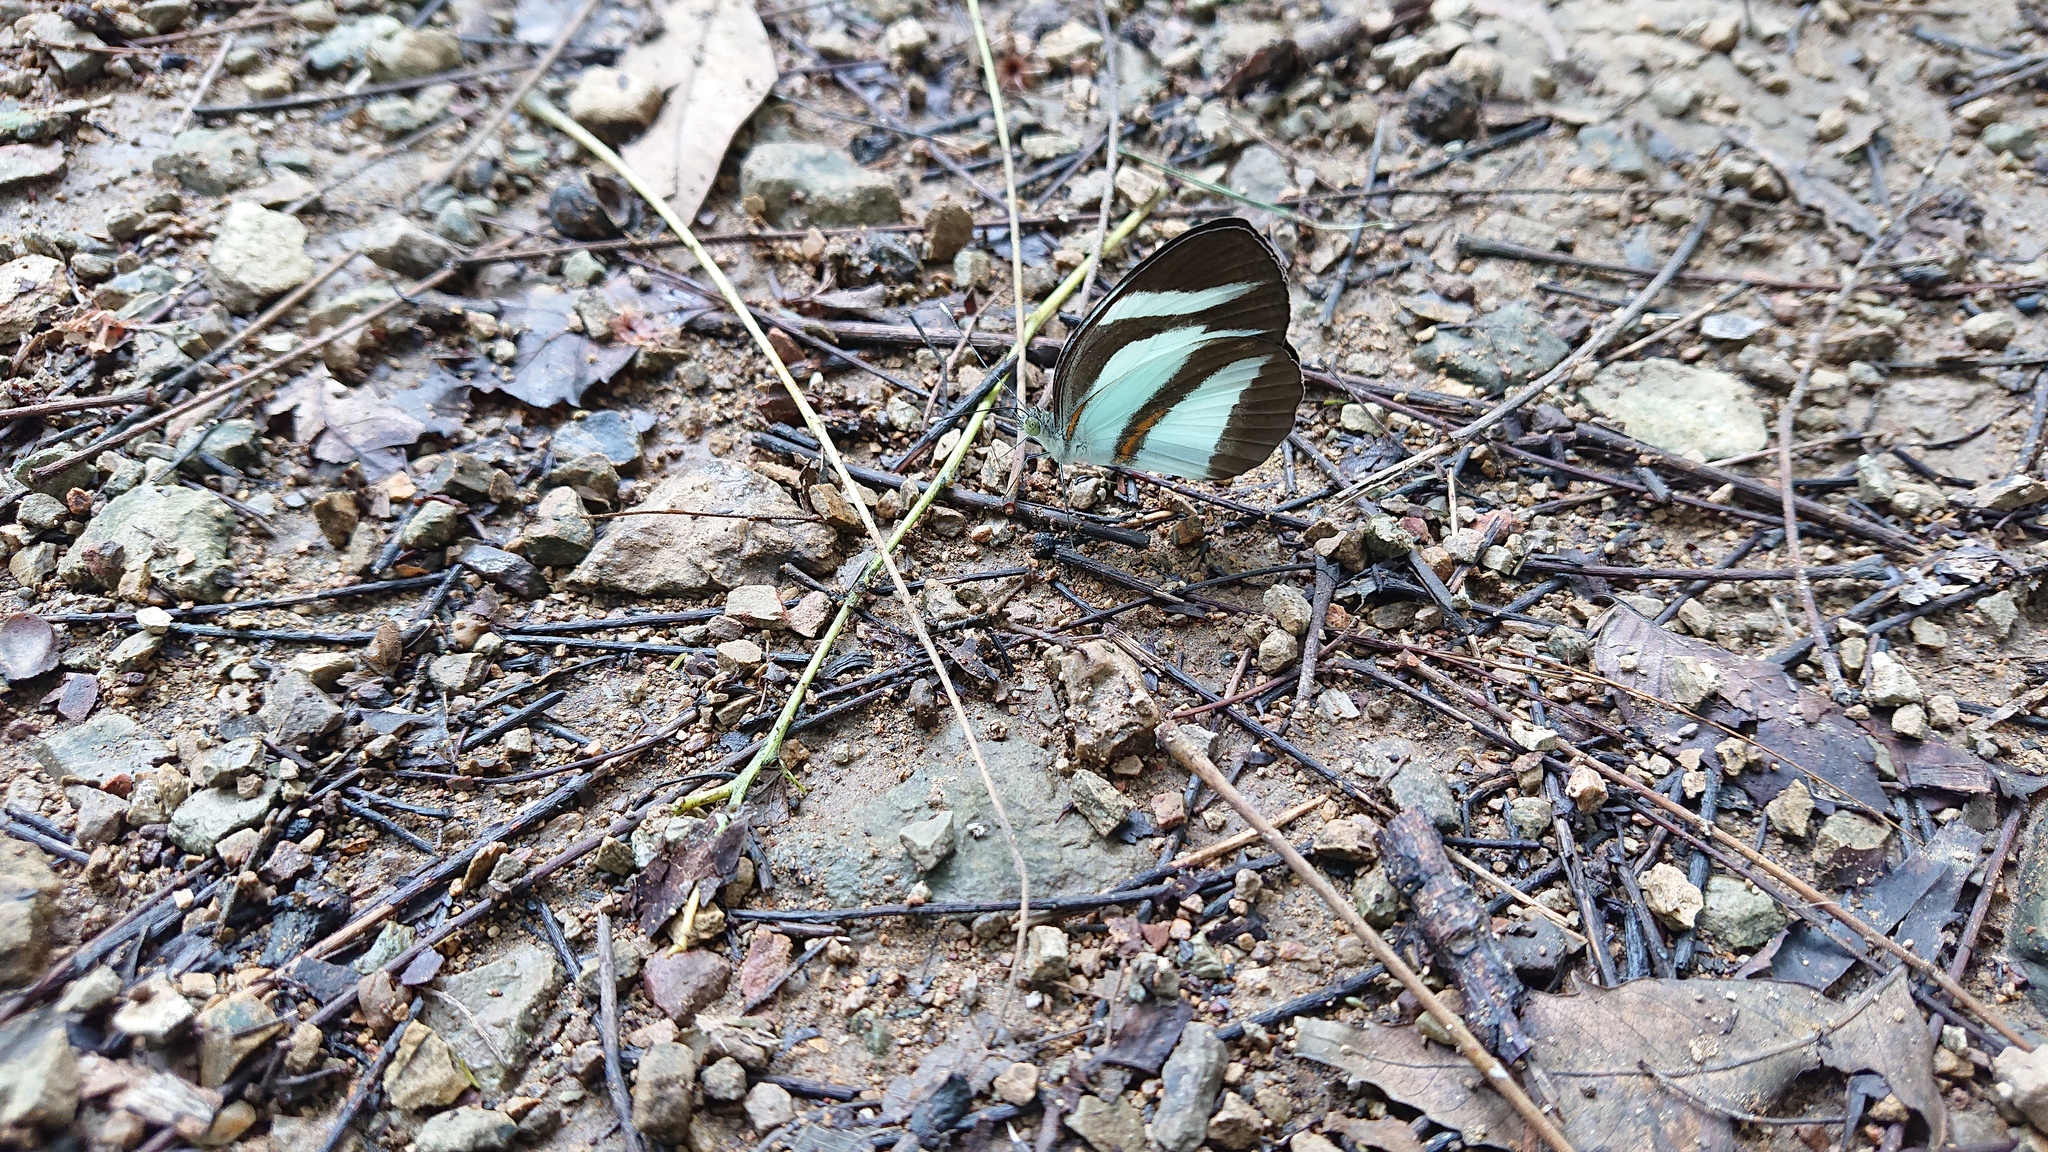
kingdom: Animalia
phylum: Arthropoda
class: Insecta
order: Lepidoptera
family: Pieridae
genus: Itaballia
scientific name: Itaballia marana
